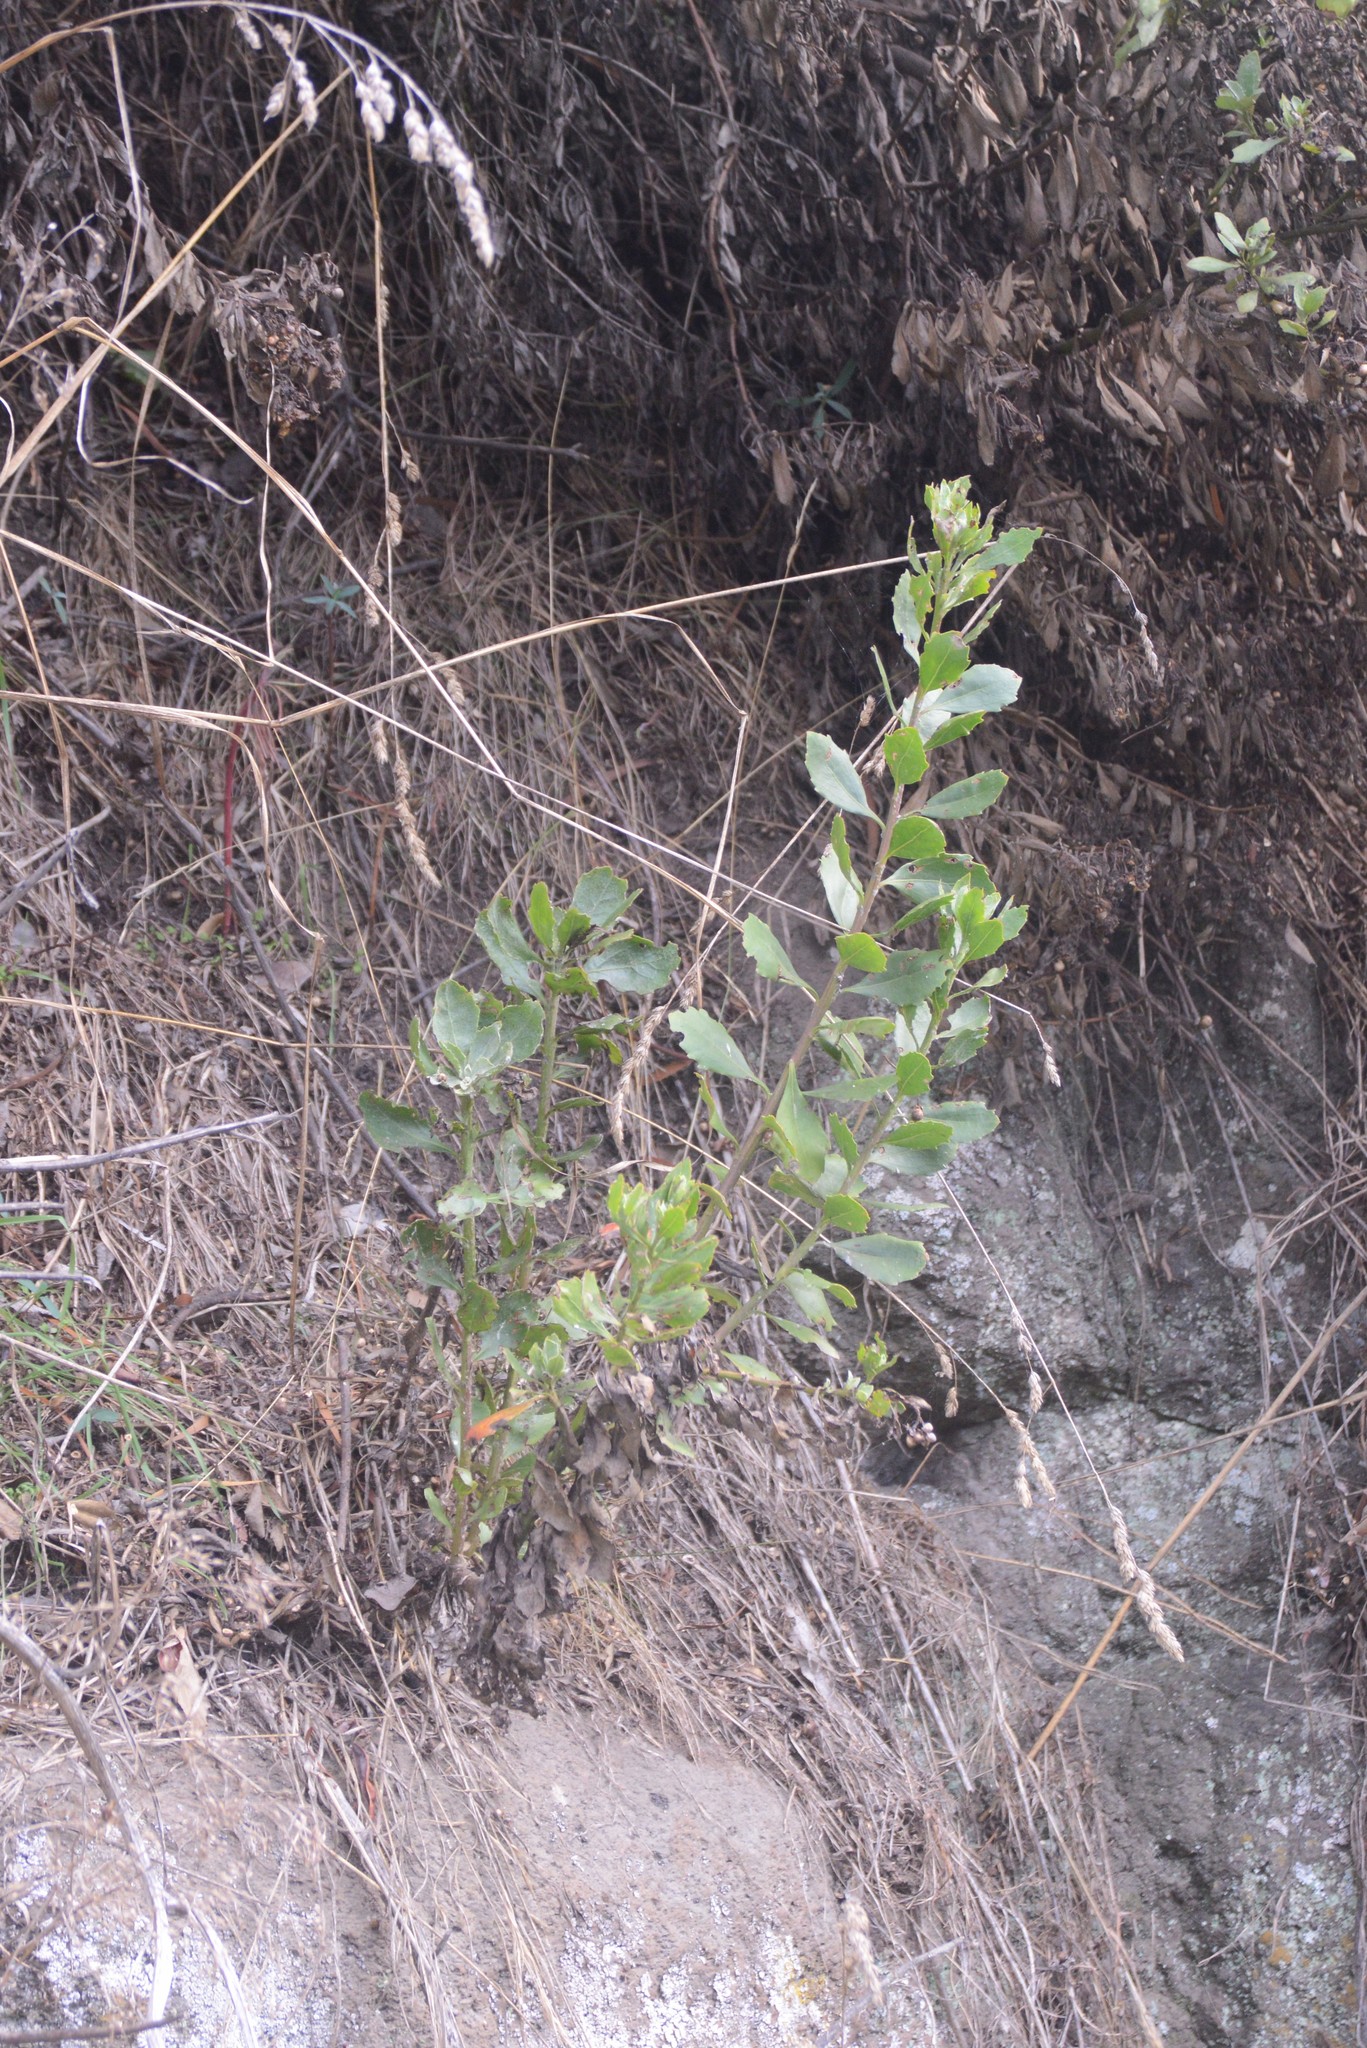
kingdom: Plantae
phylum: Tracheophyta
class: Magnoliopsida
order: Asterales
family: Asteraceae
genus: Osteospermum
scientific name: Osteospermum moniliferum
